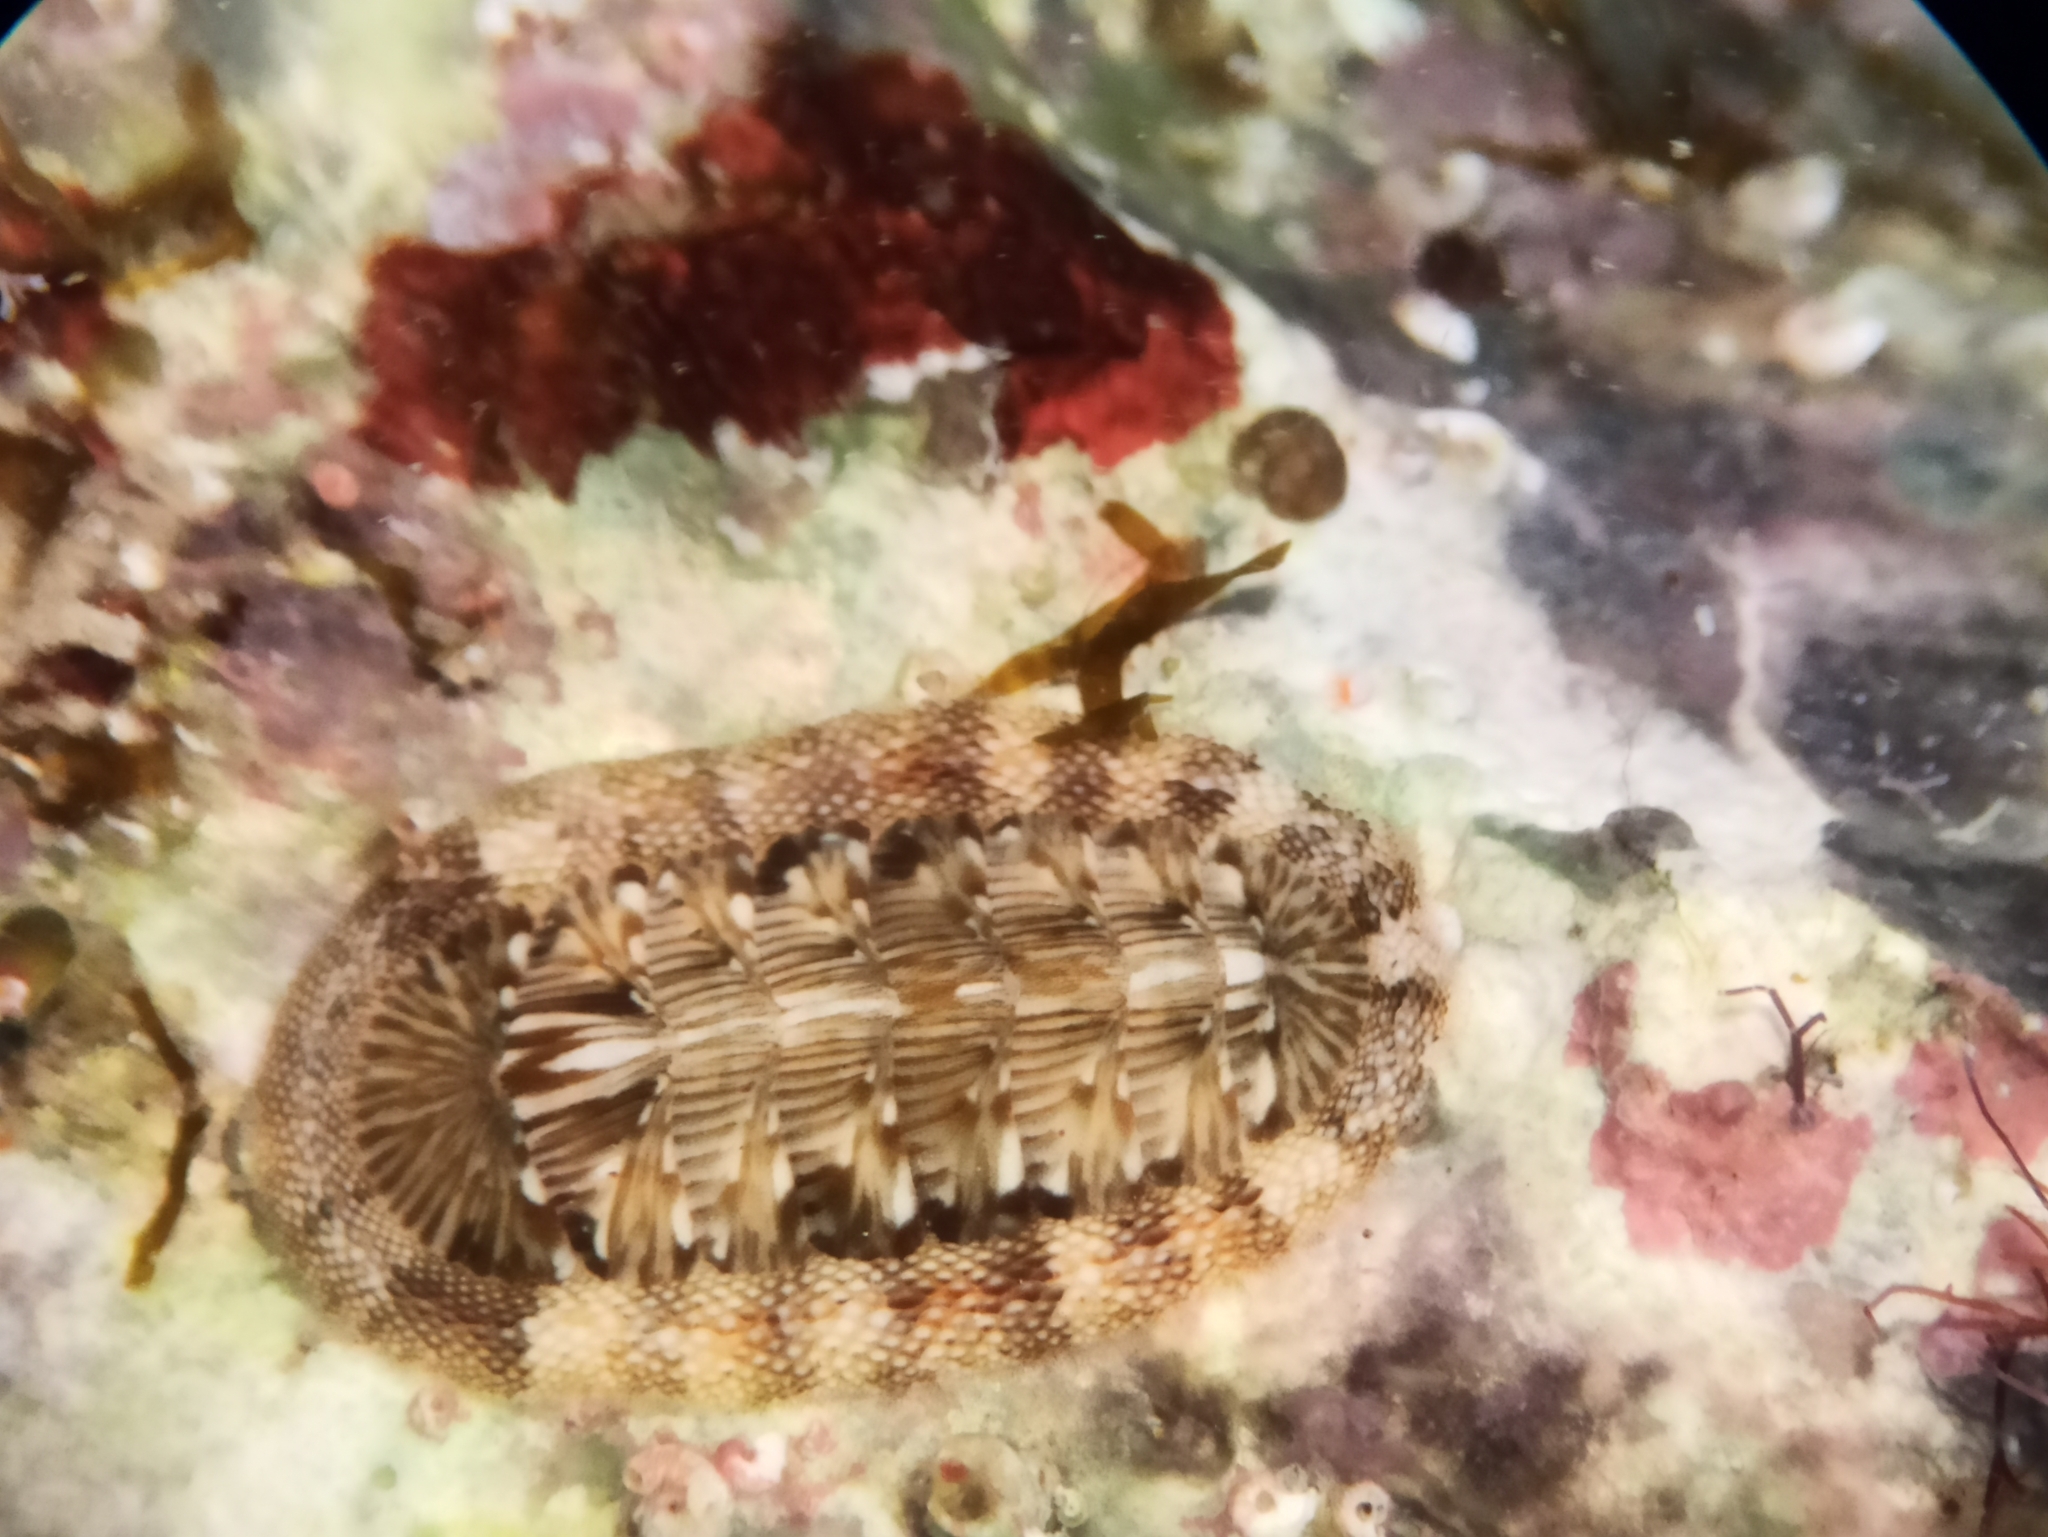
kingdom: Animalia
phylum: Mollusca
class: Polyplacophora
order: Chitonida
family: Chitonidae
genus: Rhyssoplax
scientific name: Rhyssoplax olivacea
